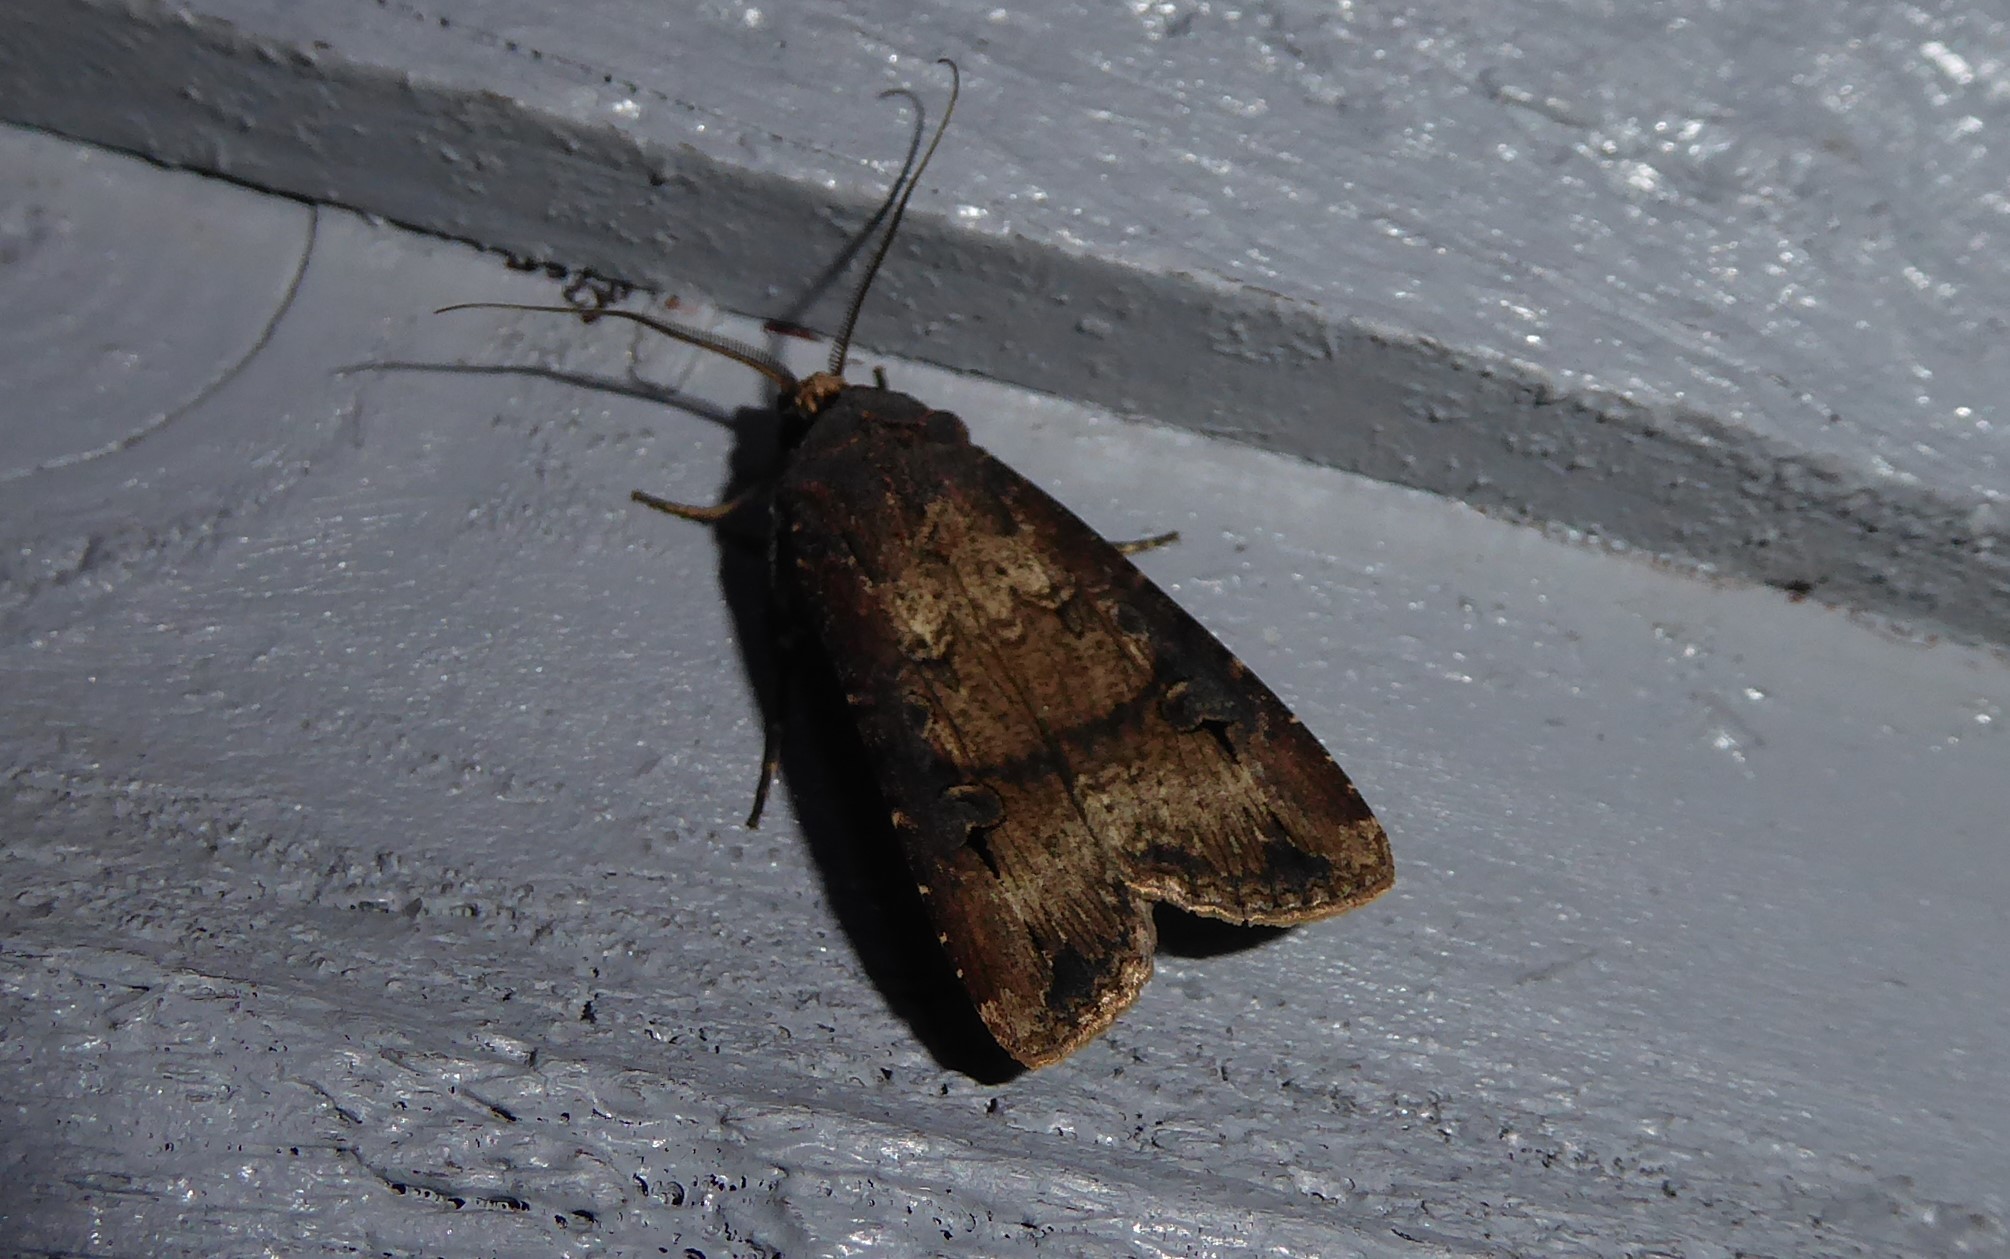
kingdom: Animalia
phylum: Arthropoda
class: Insecta
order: Lepidoptera
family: Noctuidae
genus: Agrotis
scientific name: Agrotis ipsilon
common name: Dark sword-grass
